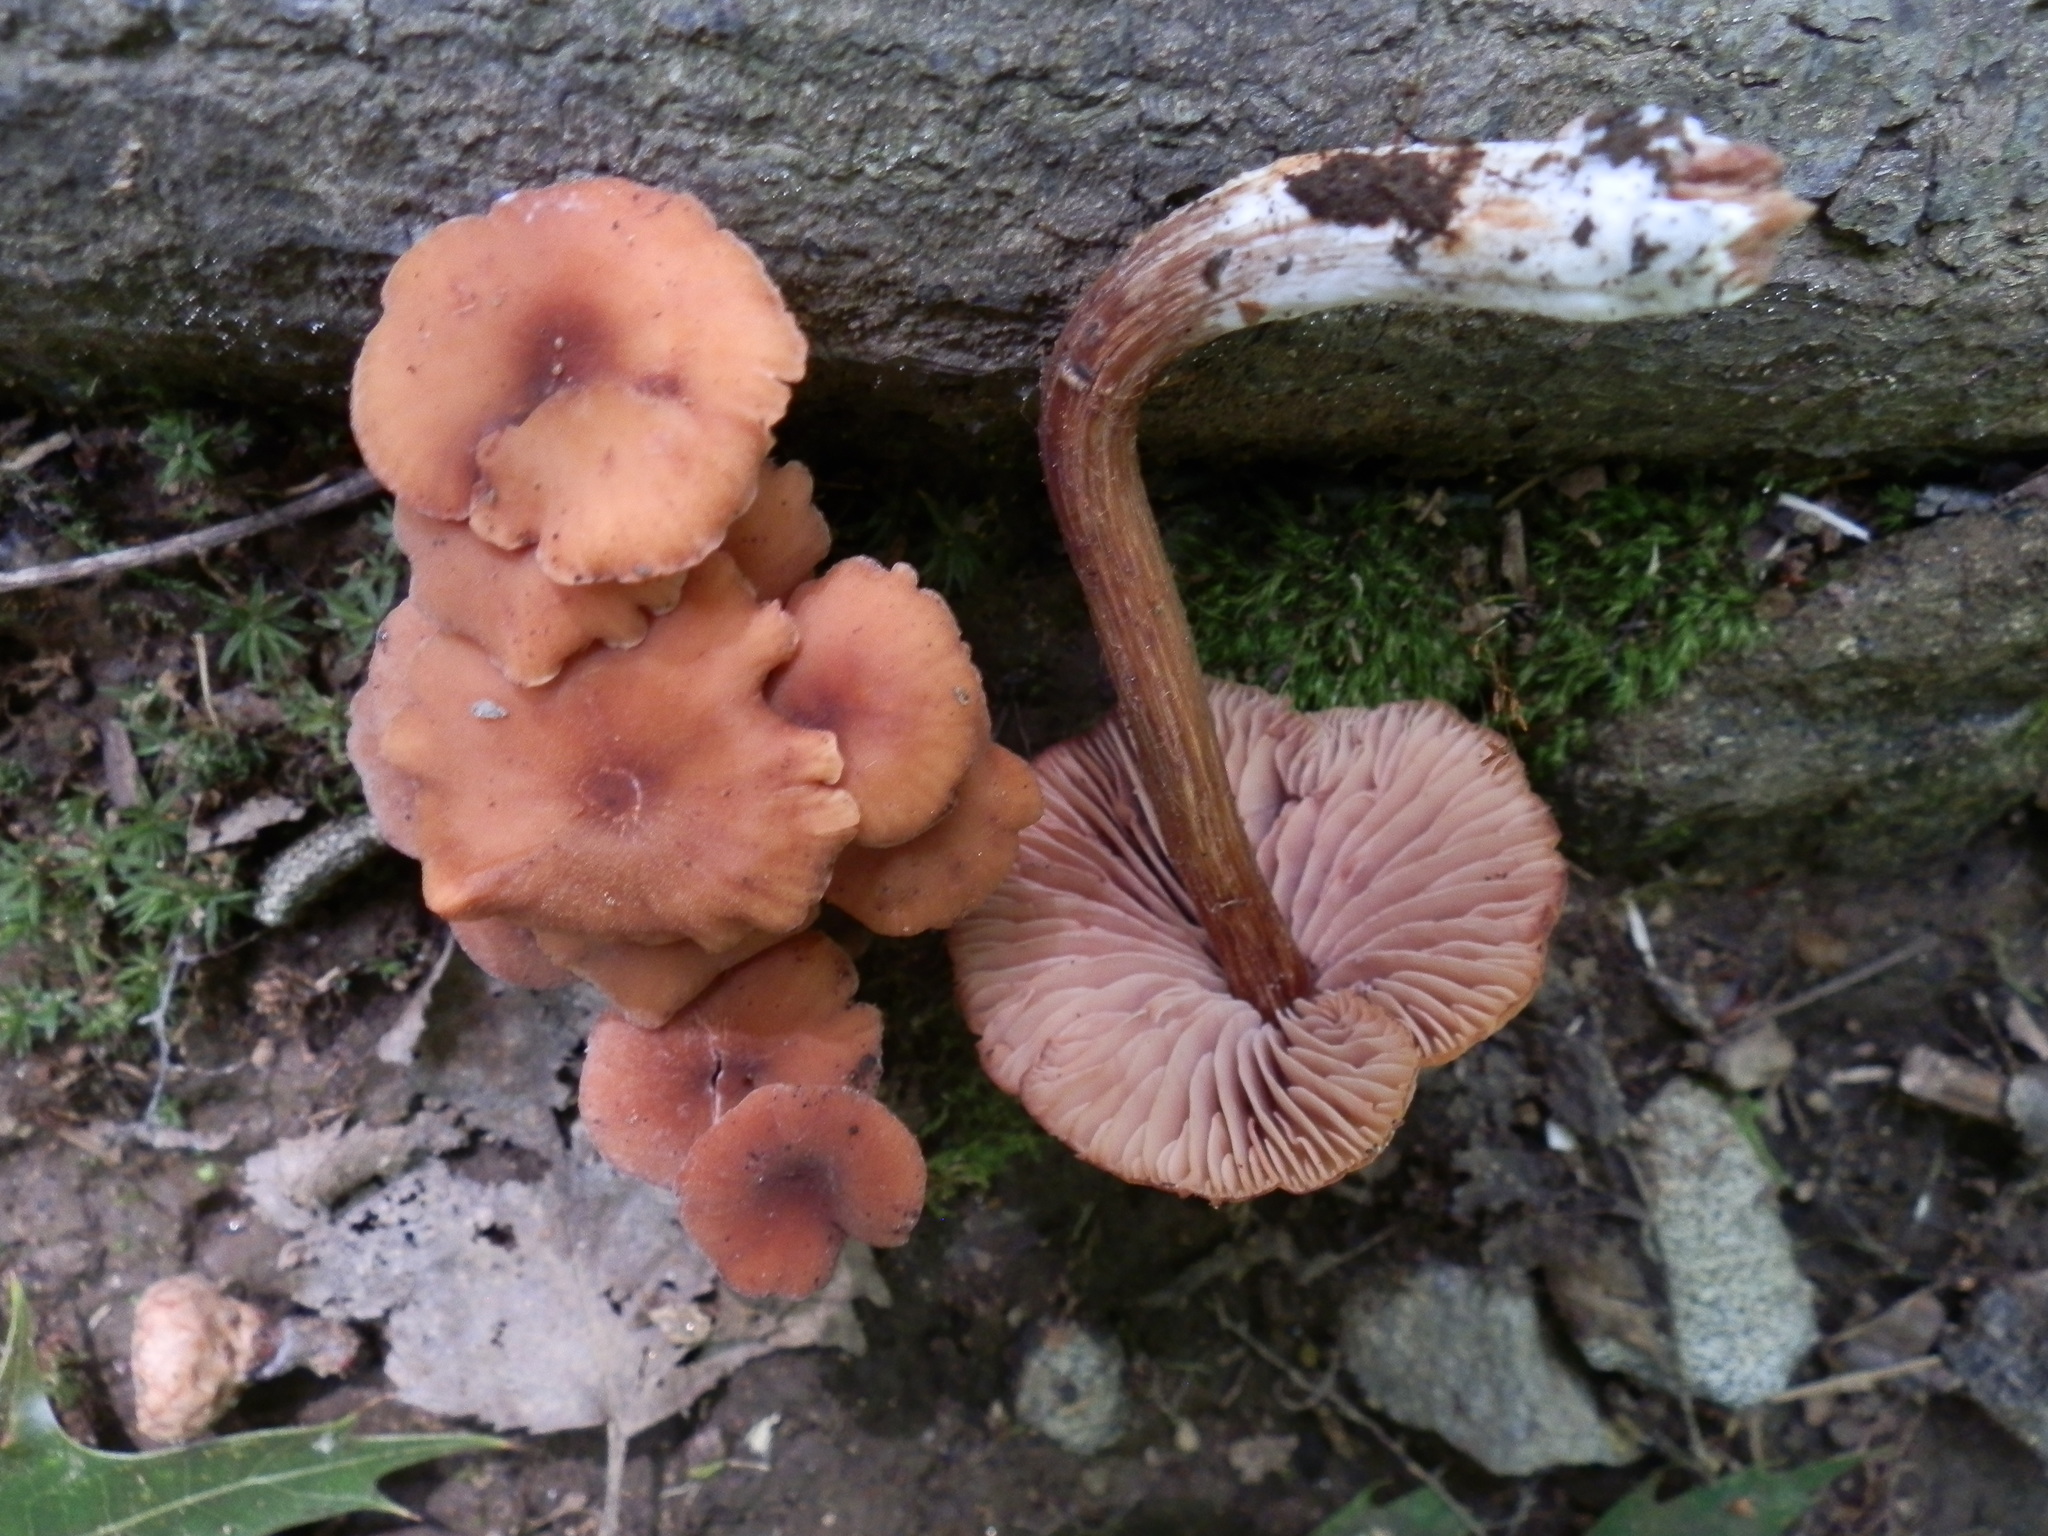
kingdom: Fungi
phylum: Basidiomycota
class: Agaricomycetes
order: Agaricales
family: Hydnangiaceae
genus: Laccaria
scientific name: Laccaria bicolor
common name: Bicoloured deceiver
